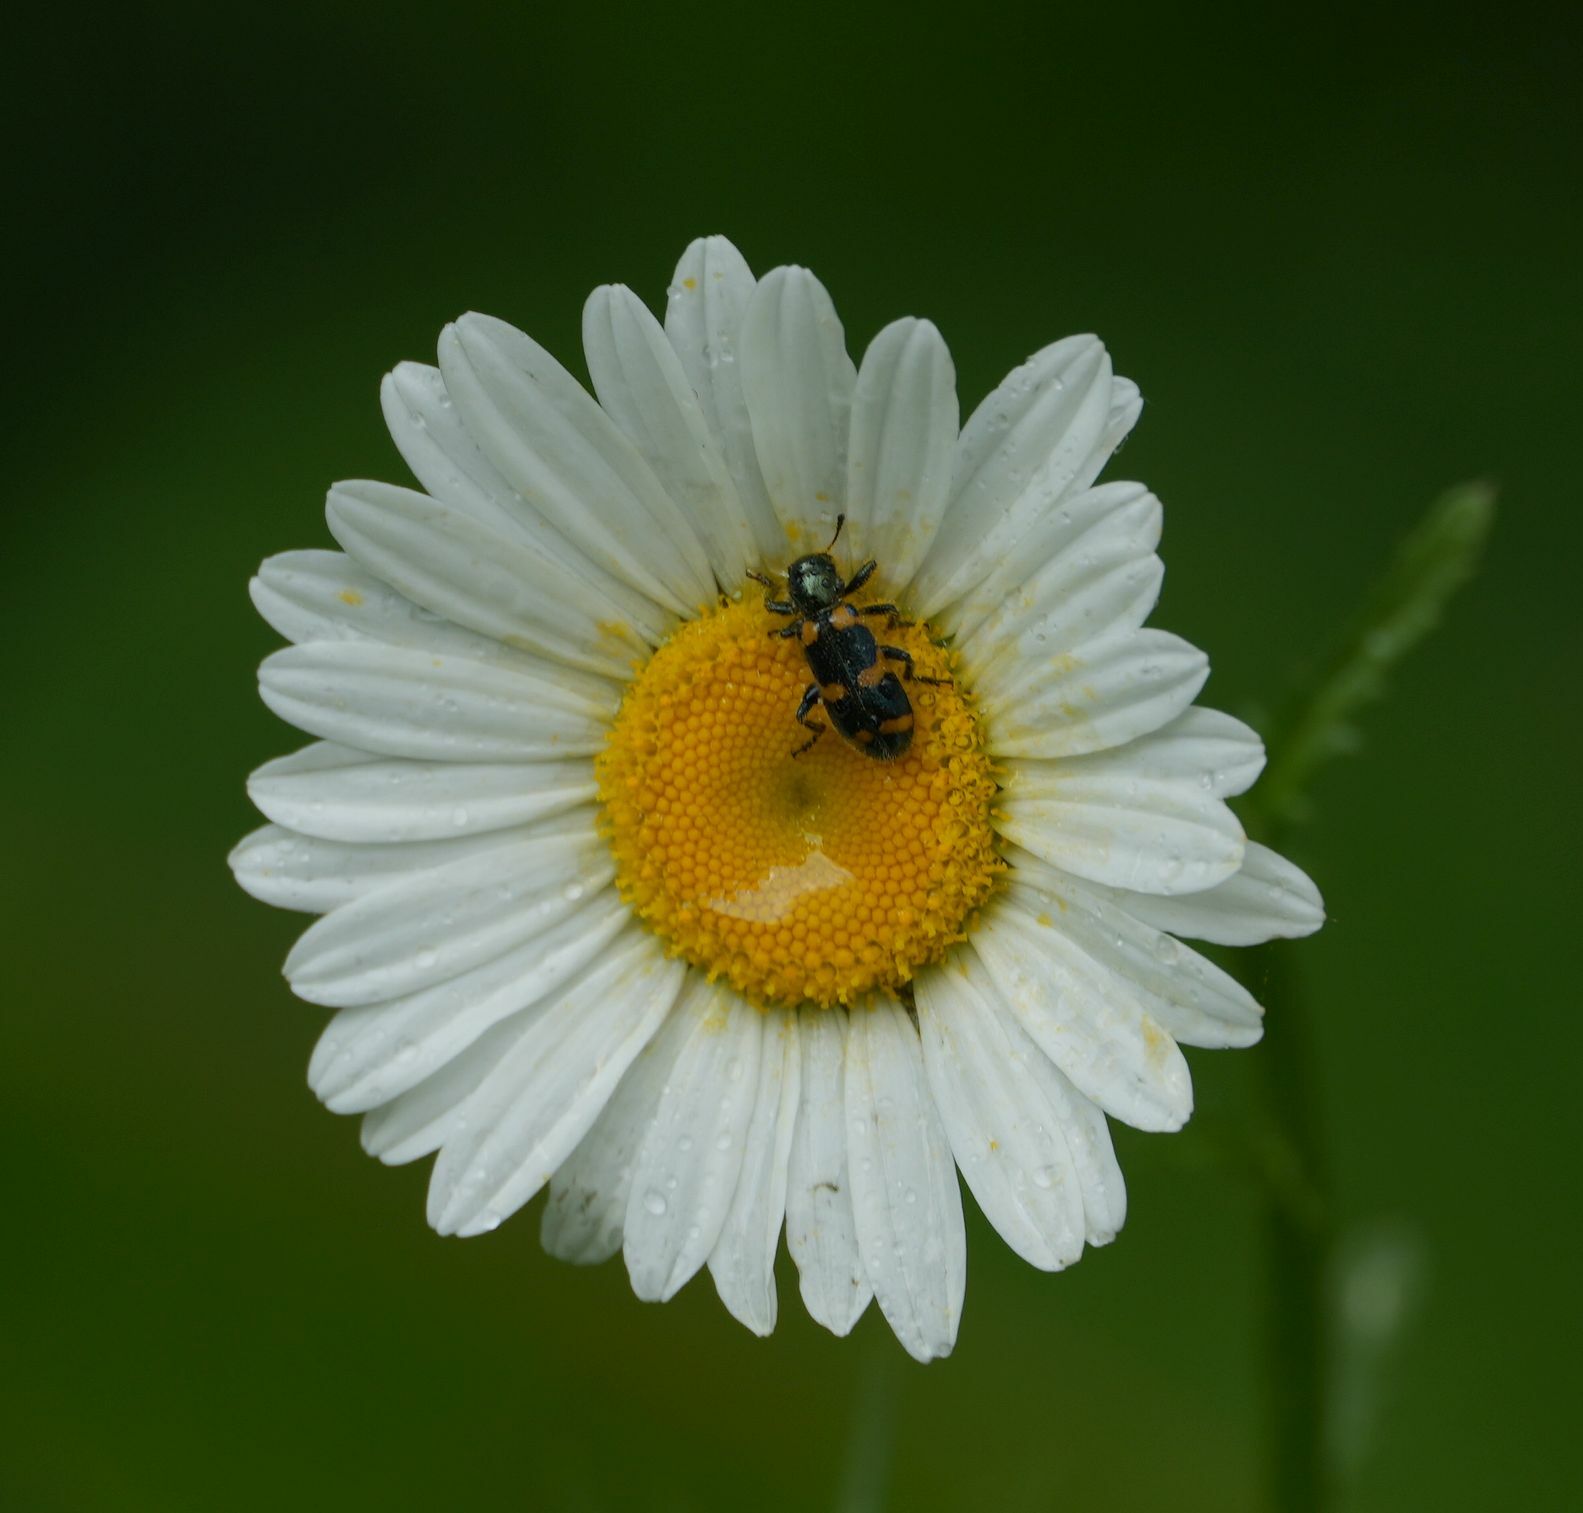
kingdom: Plantae
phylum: Tracheophyta
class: Magnoliopsida
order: Asterales
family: Asteraceae
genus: Leucanthemum
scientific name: Leucanthemum vulgare
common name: Oxeye daisy
